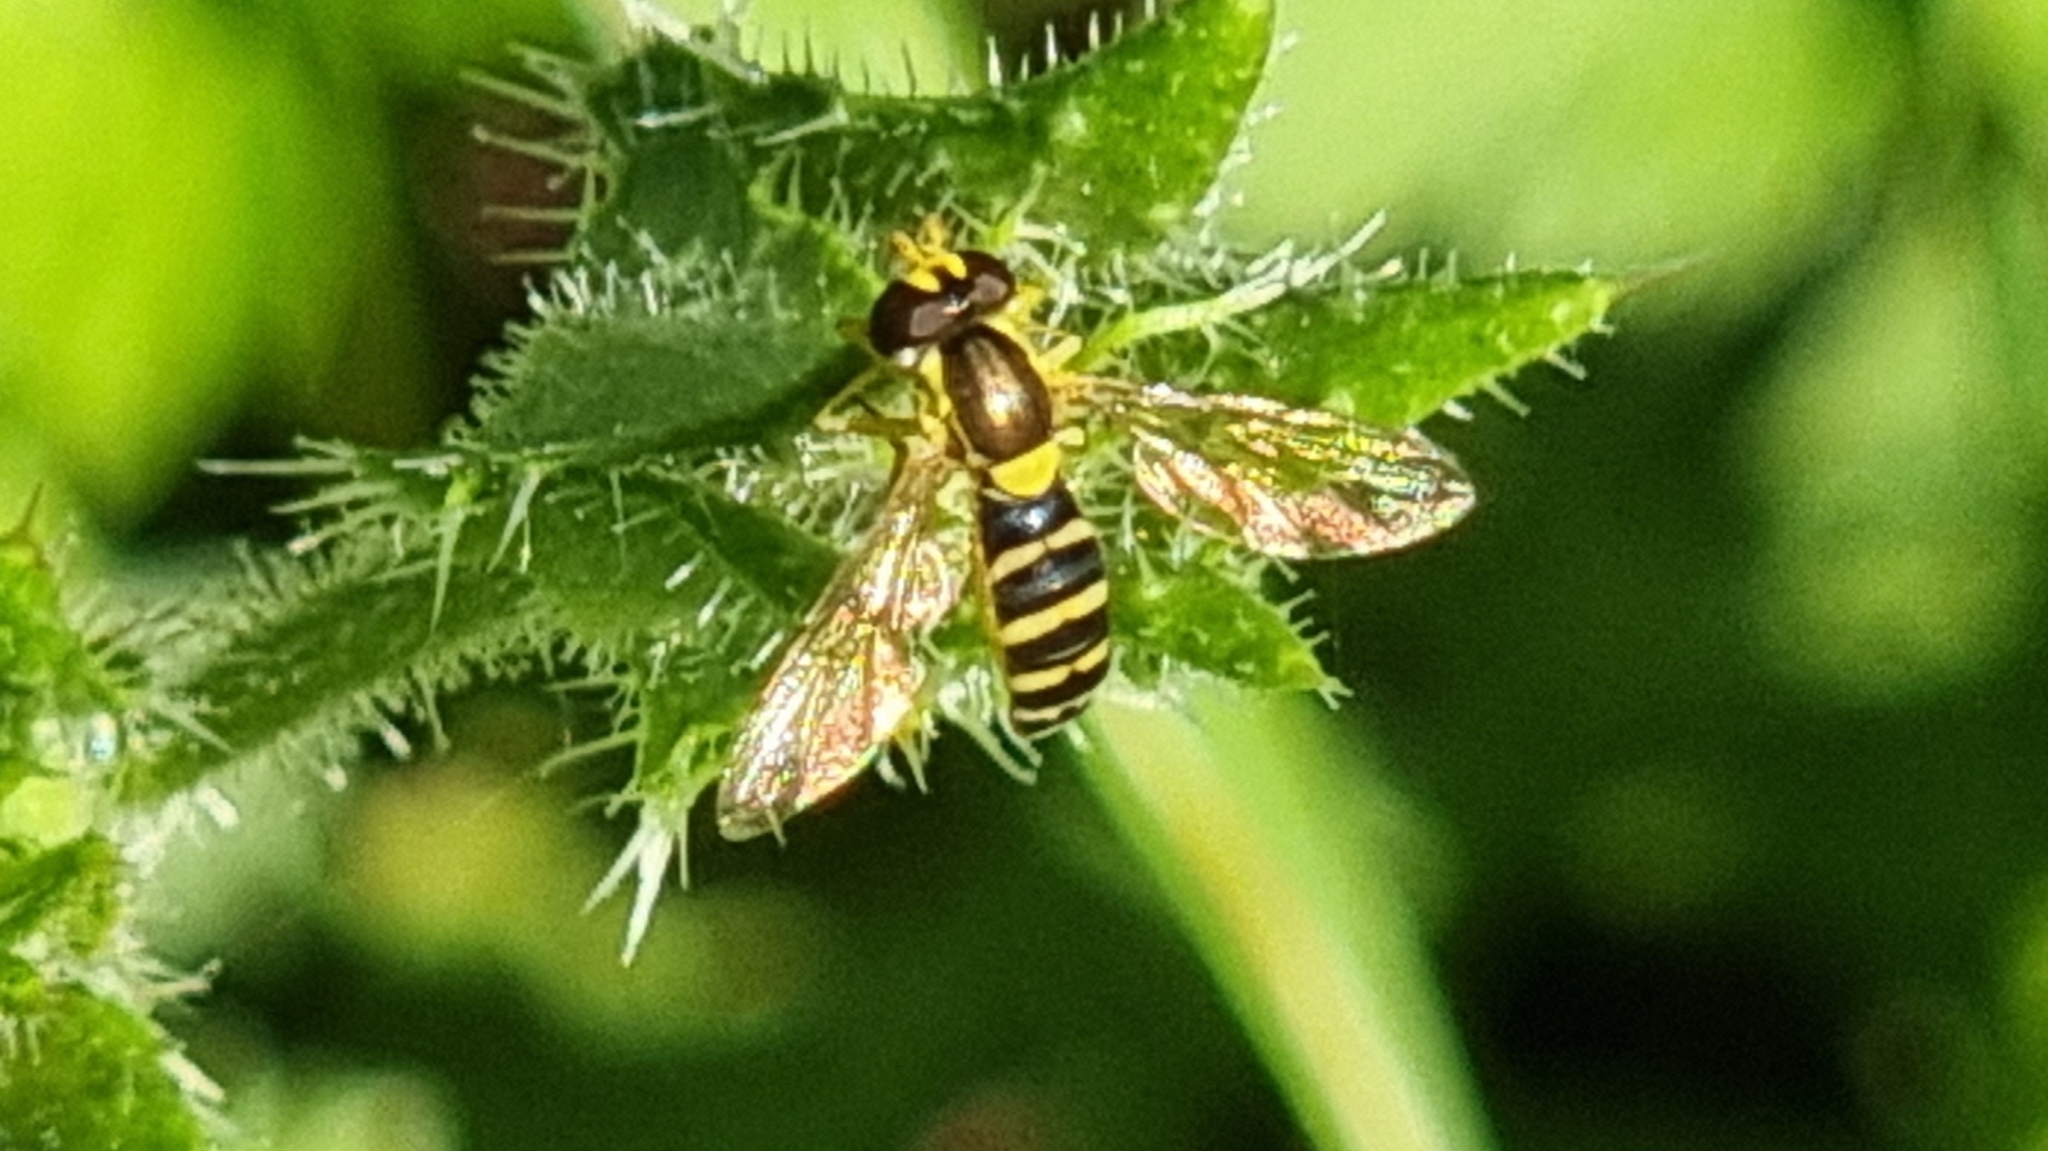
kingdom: Animalia
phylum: Arthropoda
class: Insecta
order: Diptera
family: Syrphidae
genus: Sphaerophoria
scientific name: Sphaerophoria scripta
